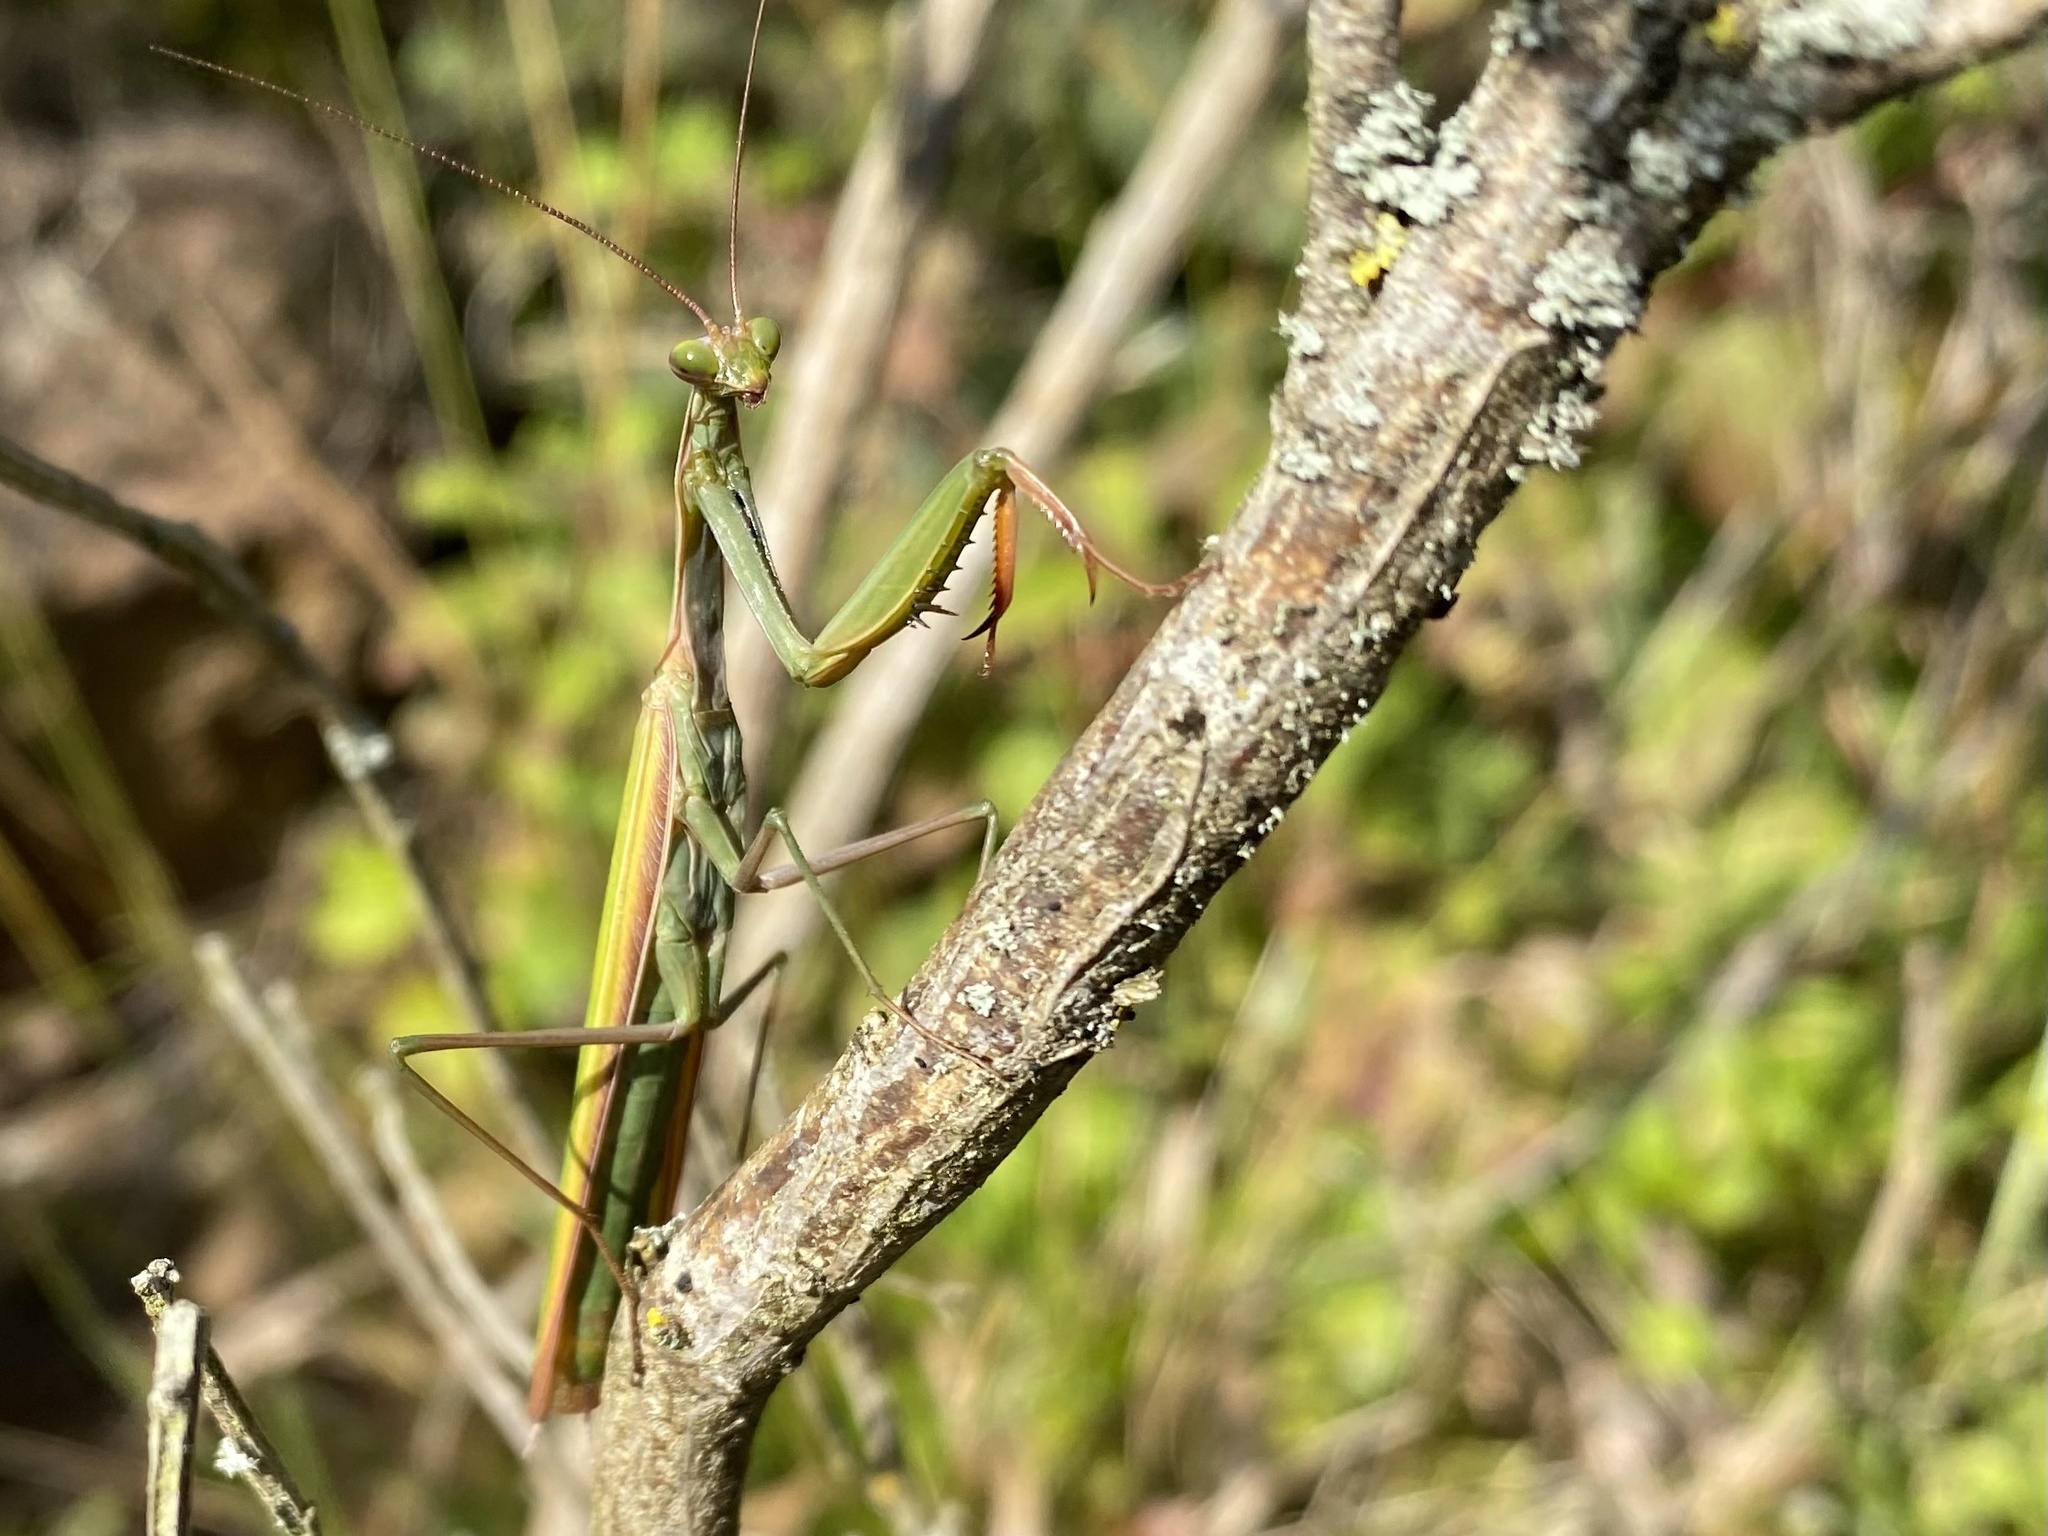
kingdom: Animalia
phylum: Arthropoda
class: Insecta
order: Mantodea
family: Mantidae
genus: Mantis
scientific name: Mantis religiosa
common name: Praying mantis
